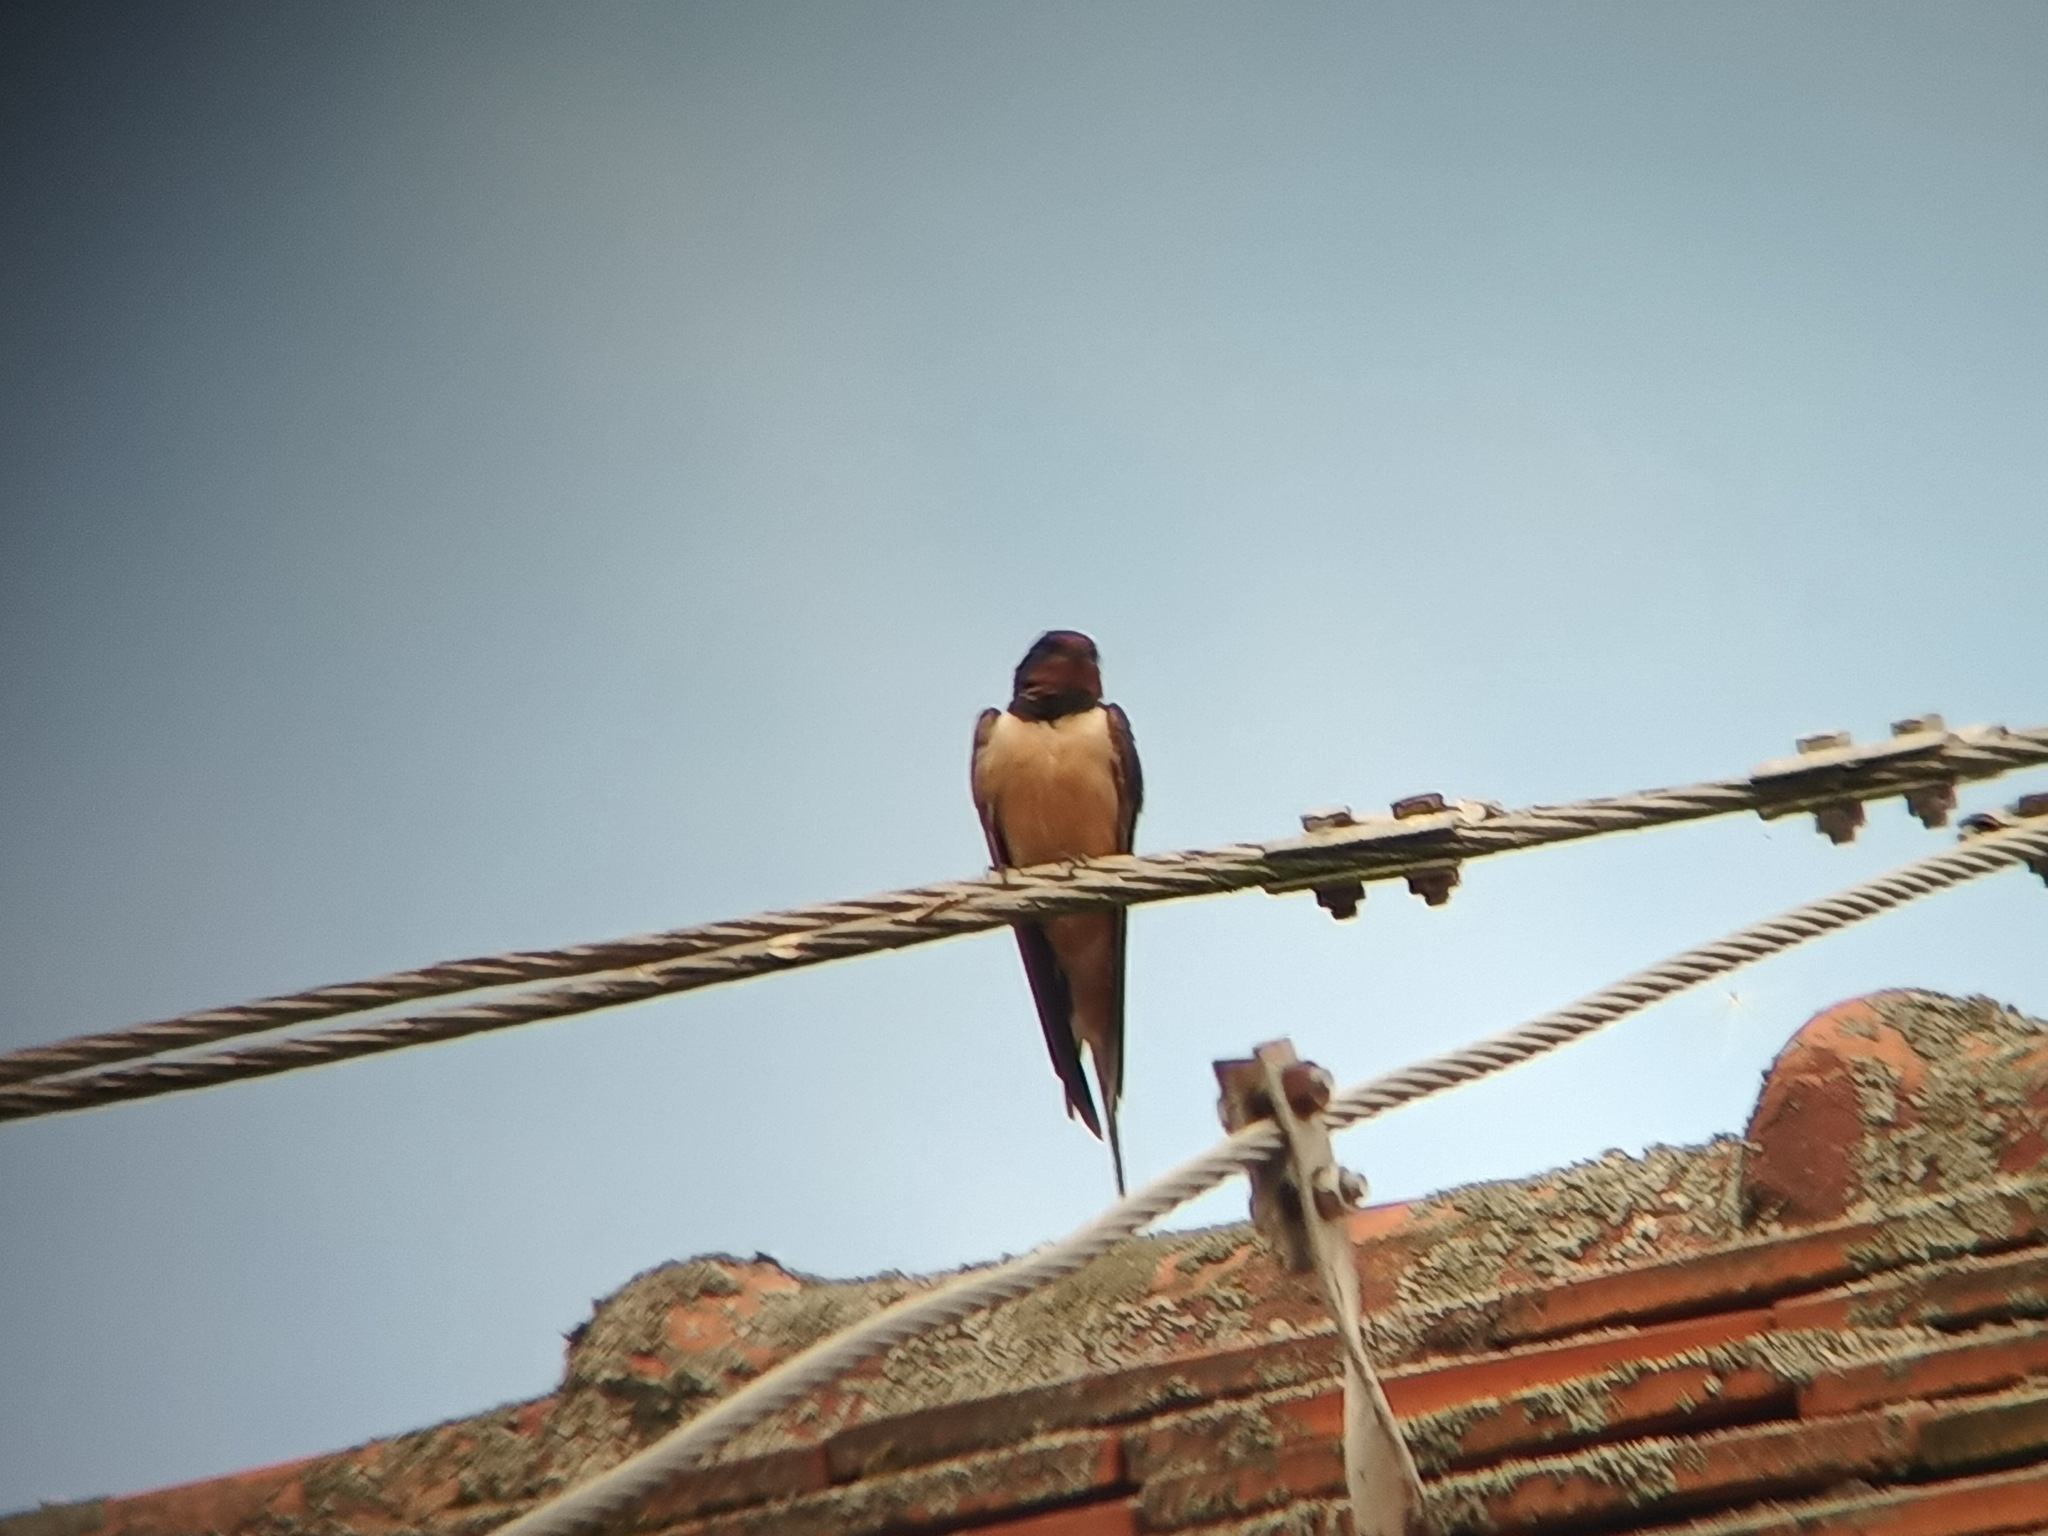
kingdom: Animalia
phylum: Chordata
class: Aves
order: Passeriformes
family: Hirundinidae
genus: Hirundo
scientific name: Hirundo rustica
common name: Barn swallow
